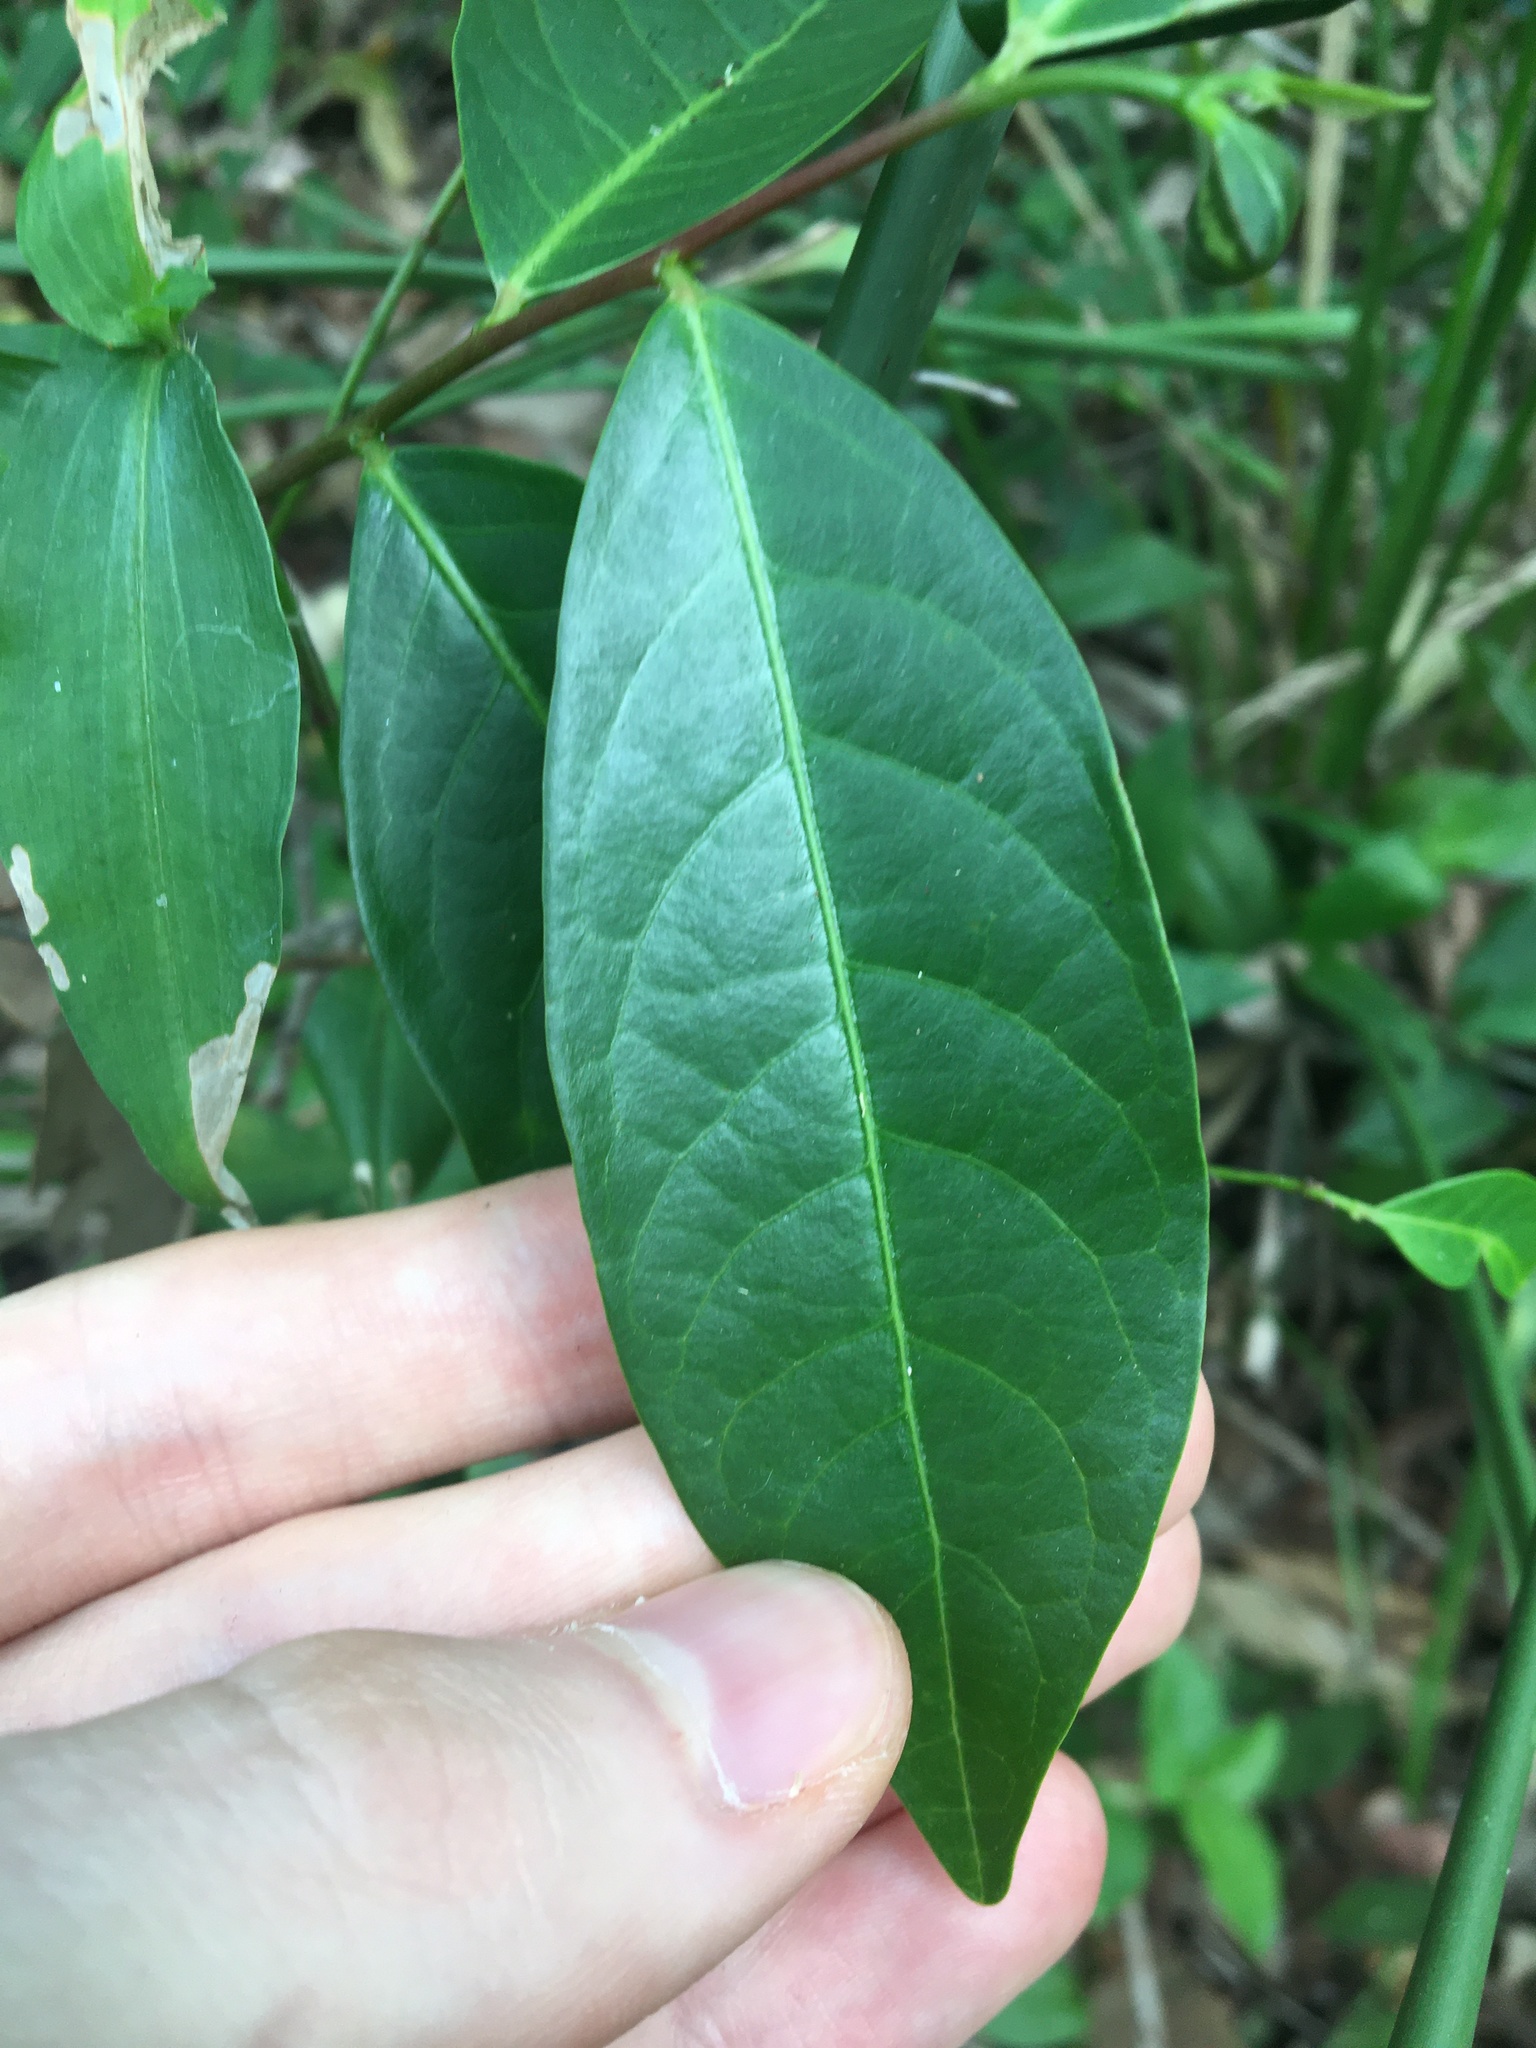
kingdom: Plantae
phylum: Tracheophyta
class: Magnoliopsida
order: Malpighiales
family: Phyllanthaceae
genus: Glochidion
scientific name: Glochidion ferdinandi
